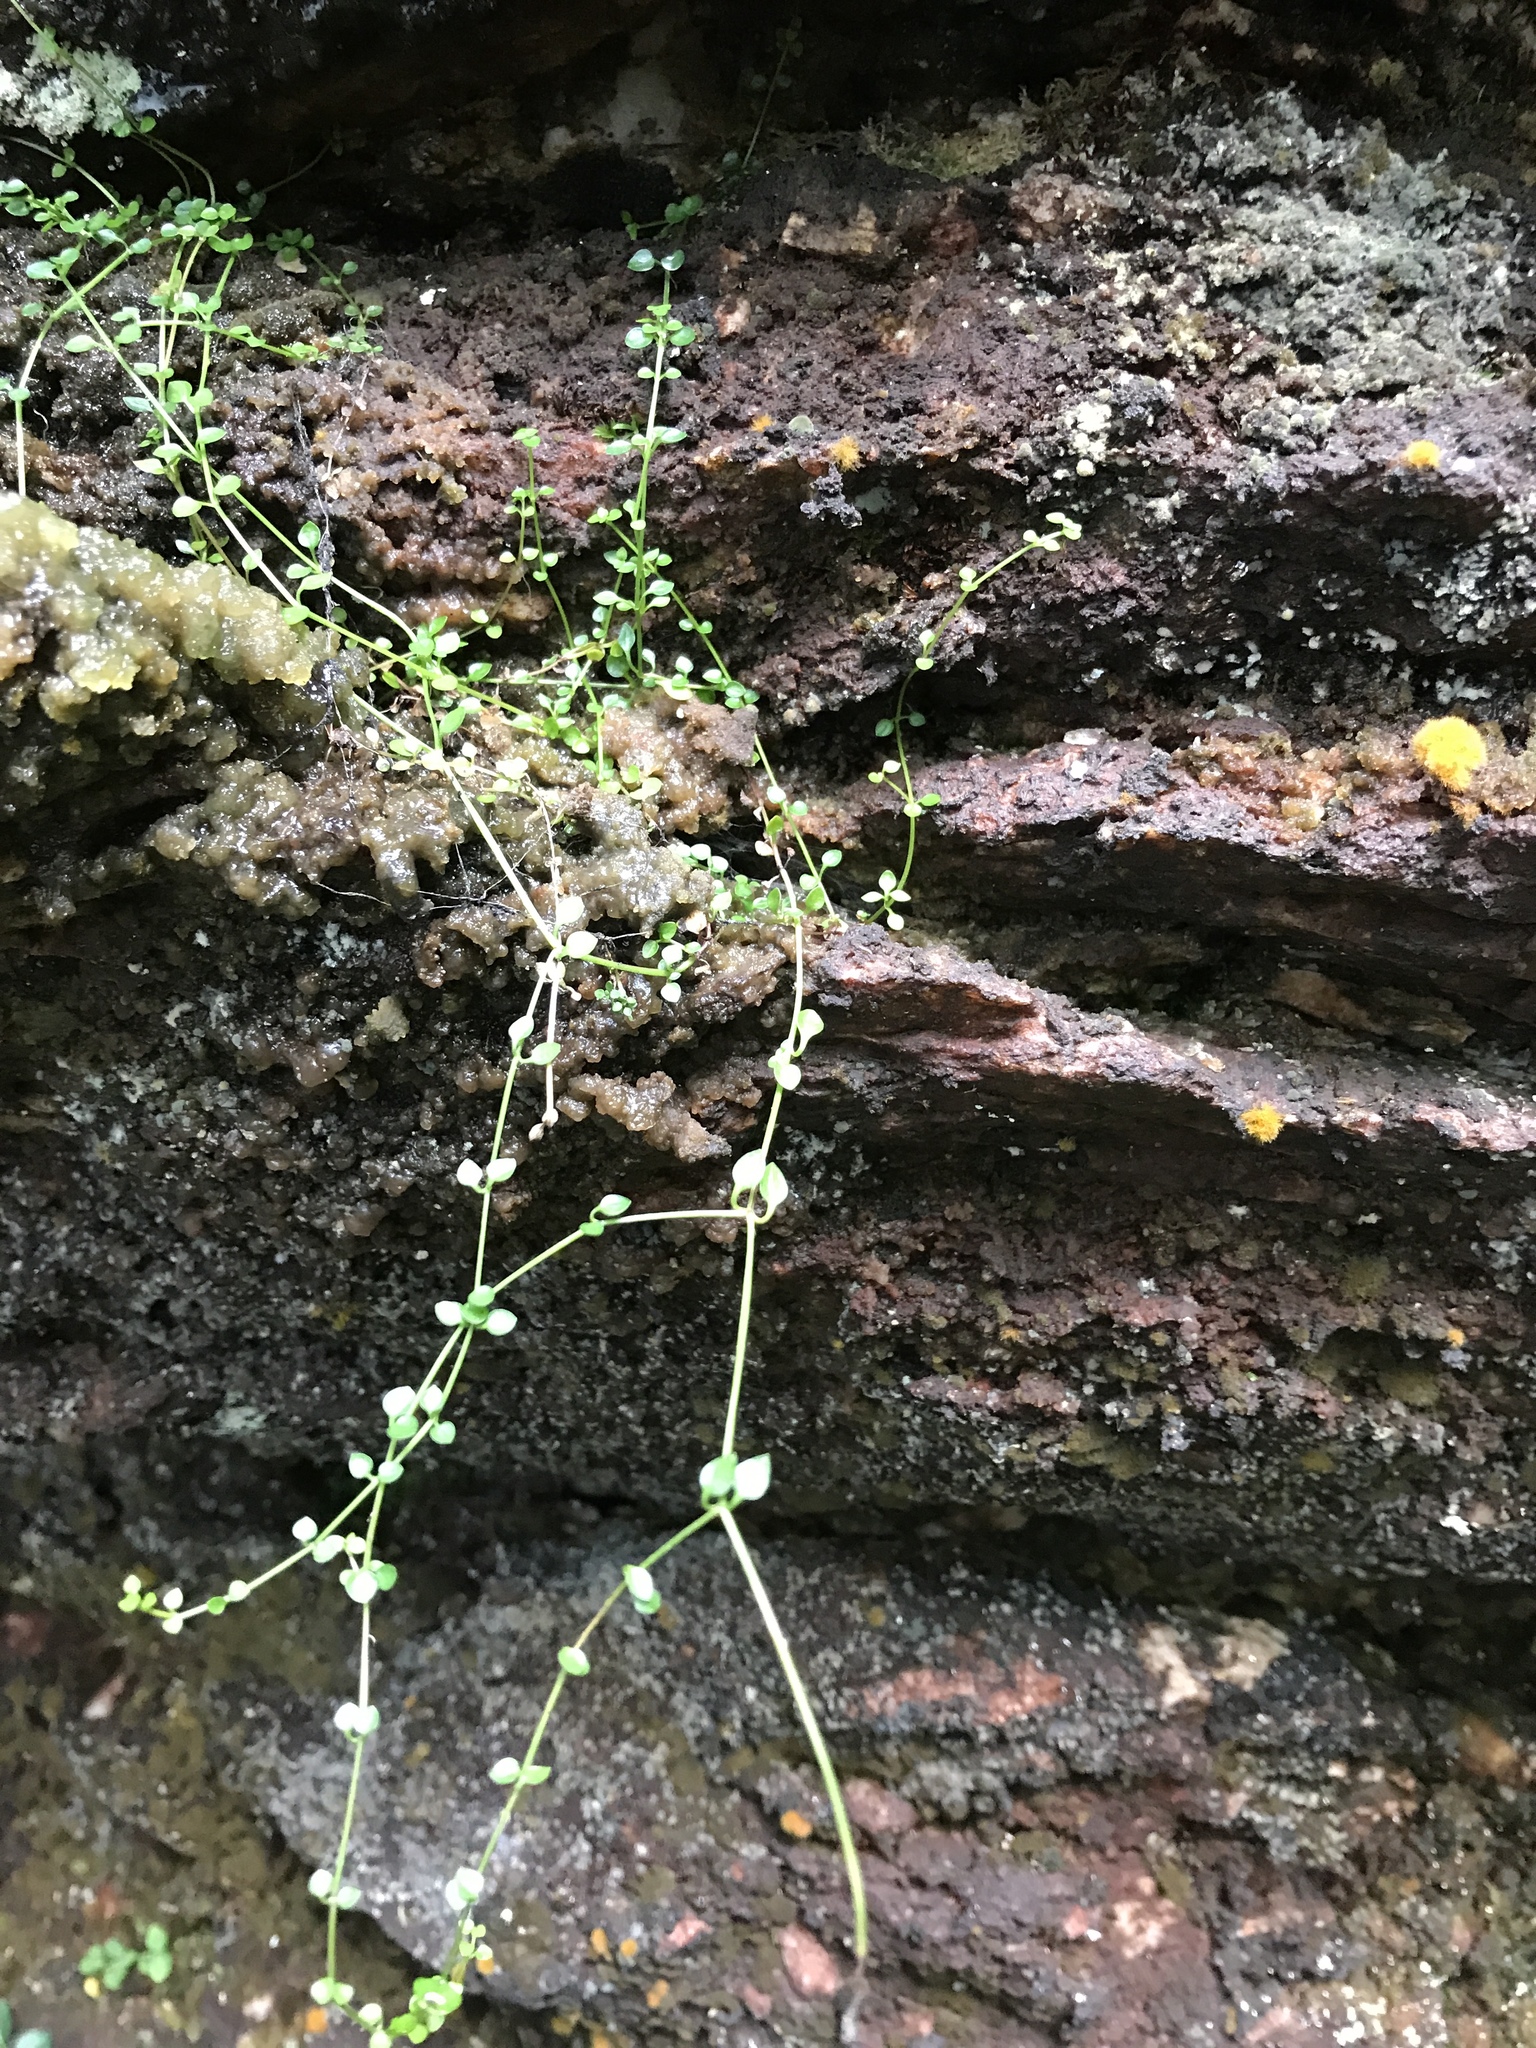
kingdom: Plantae
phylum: Tracheophyta
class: Magnoliopsida
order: Gentianales
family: Rubiaceae
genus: Houstonia
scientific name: Houstonia serpyllifolia
